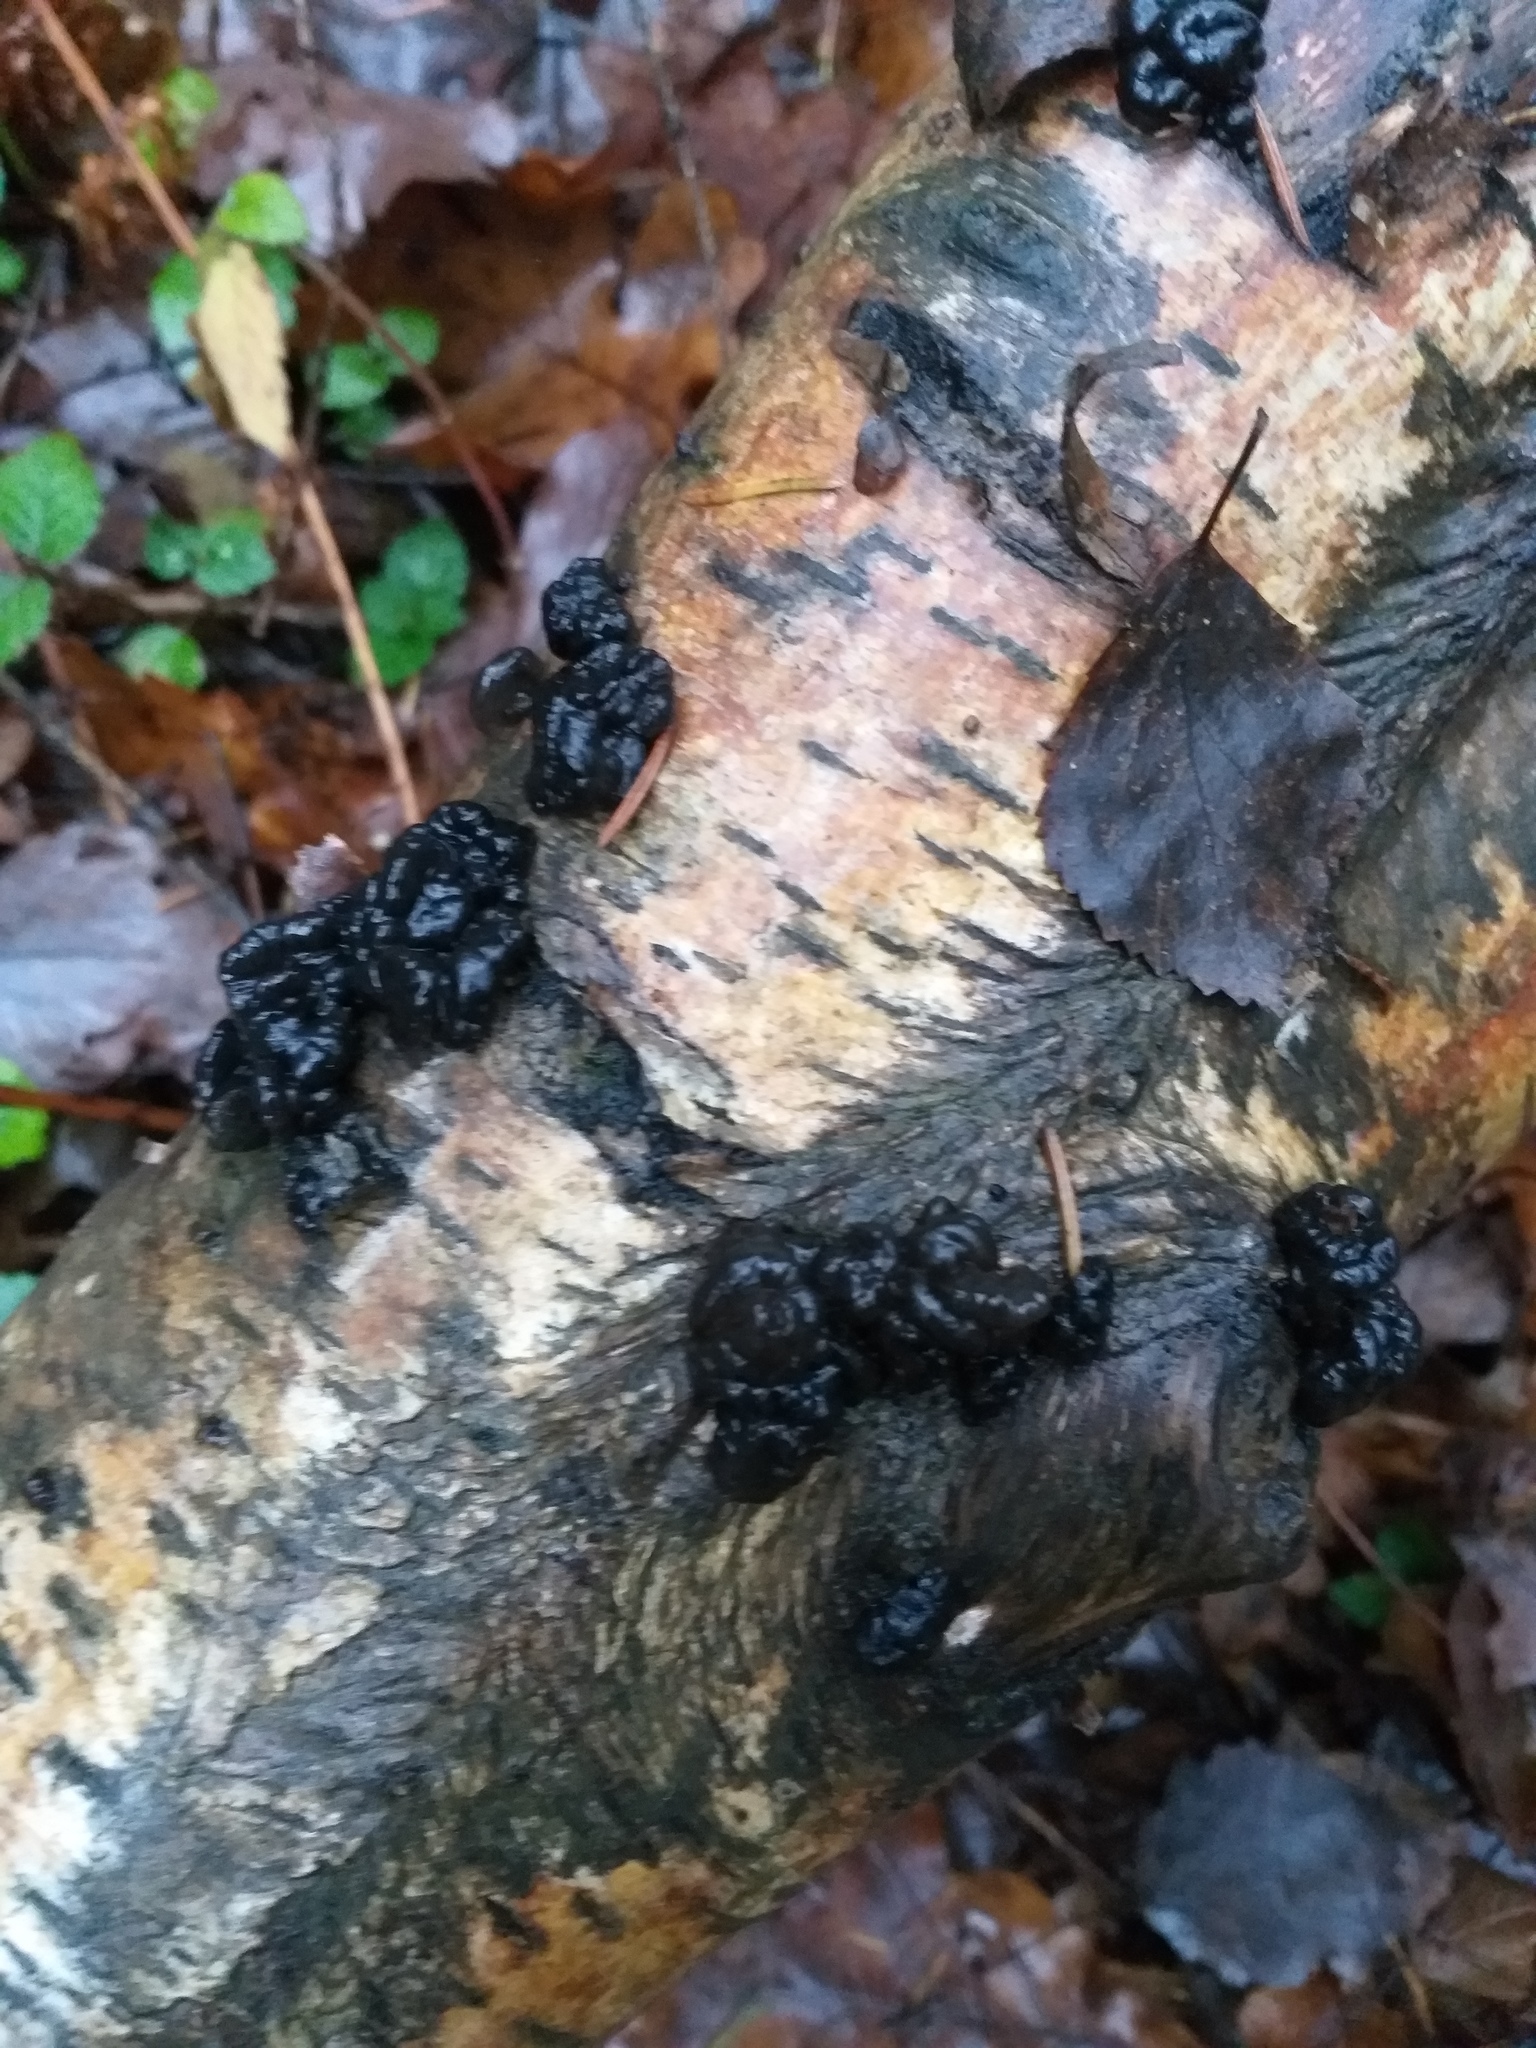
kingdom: Fungi
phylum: Basidiomycota
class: Agaricomycetes
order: Auriculariales
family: Auriculariaceae
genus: Exidia
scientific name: Exidia nigricans
